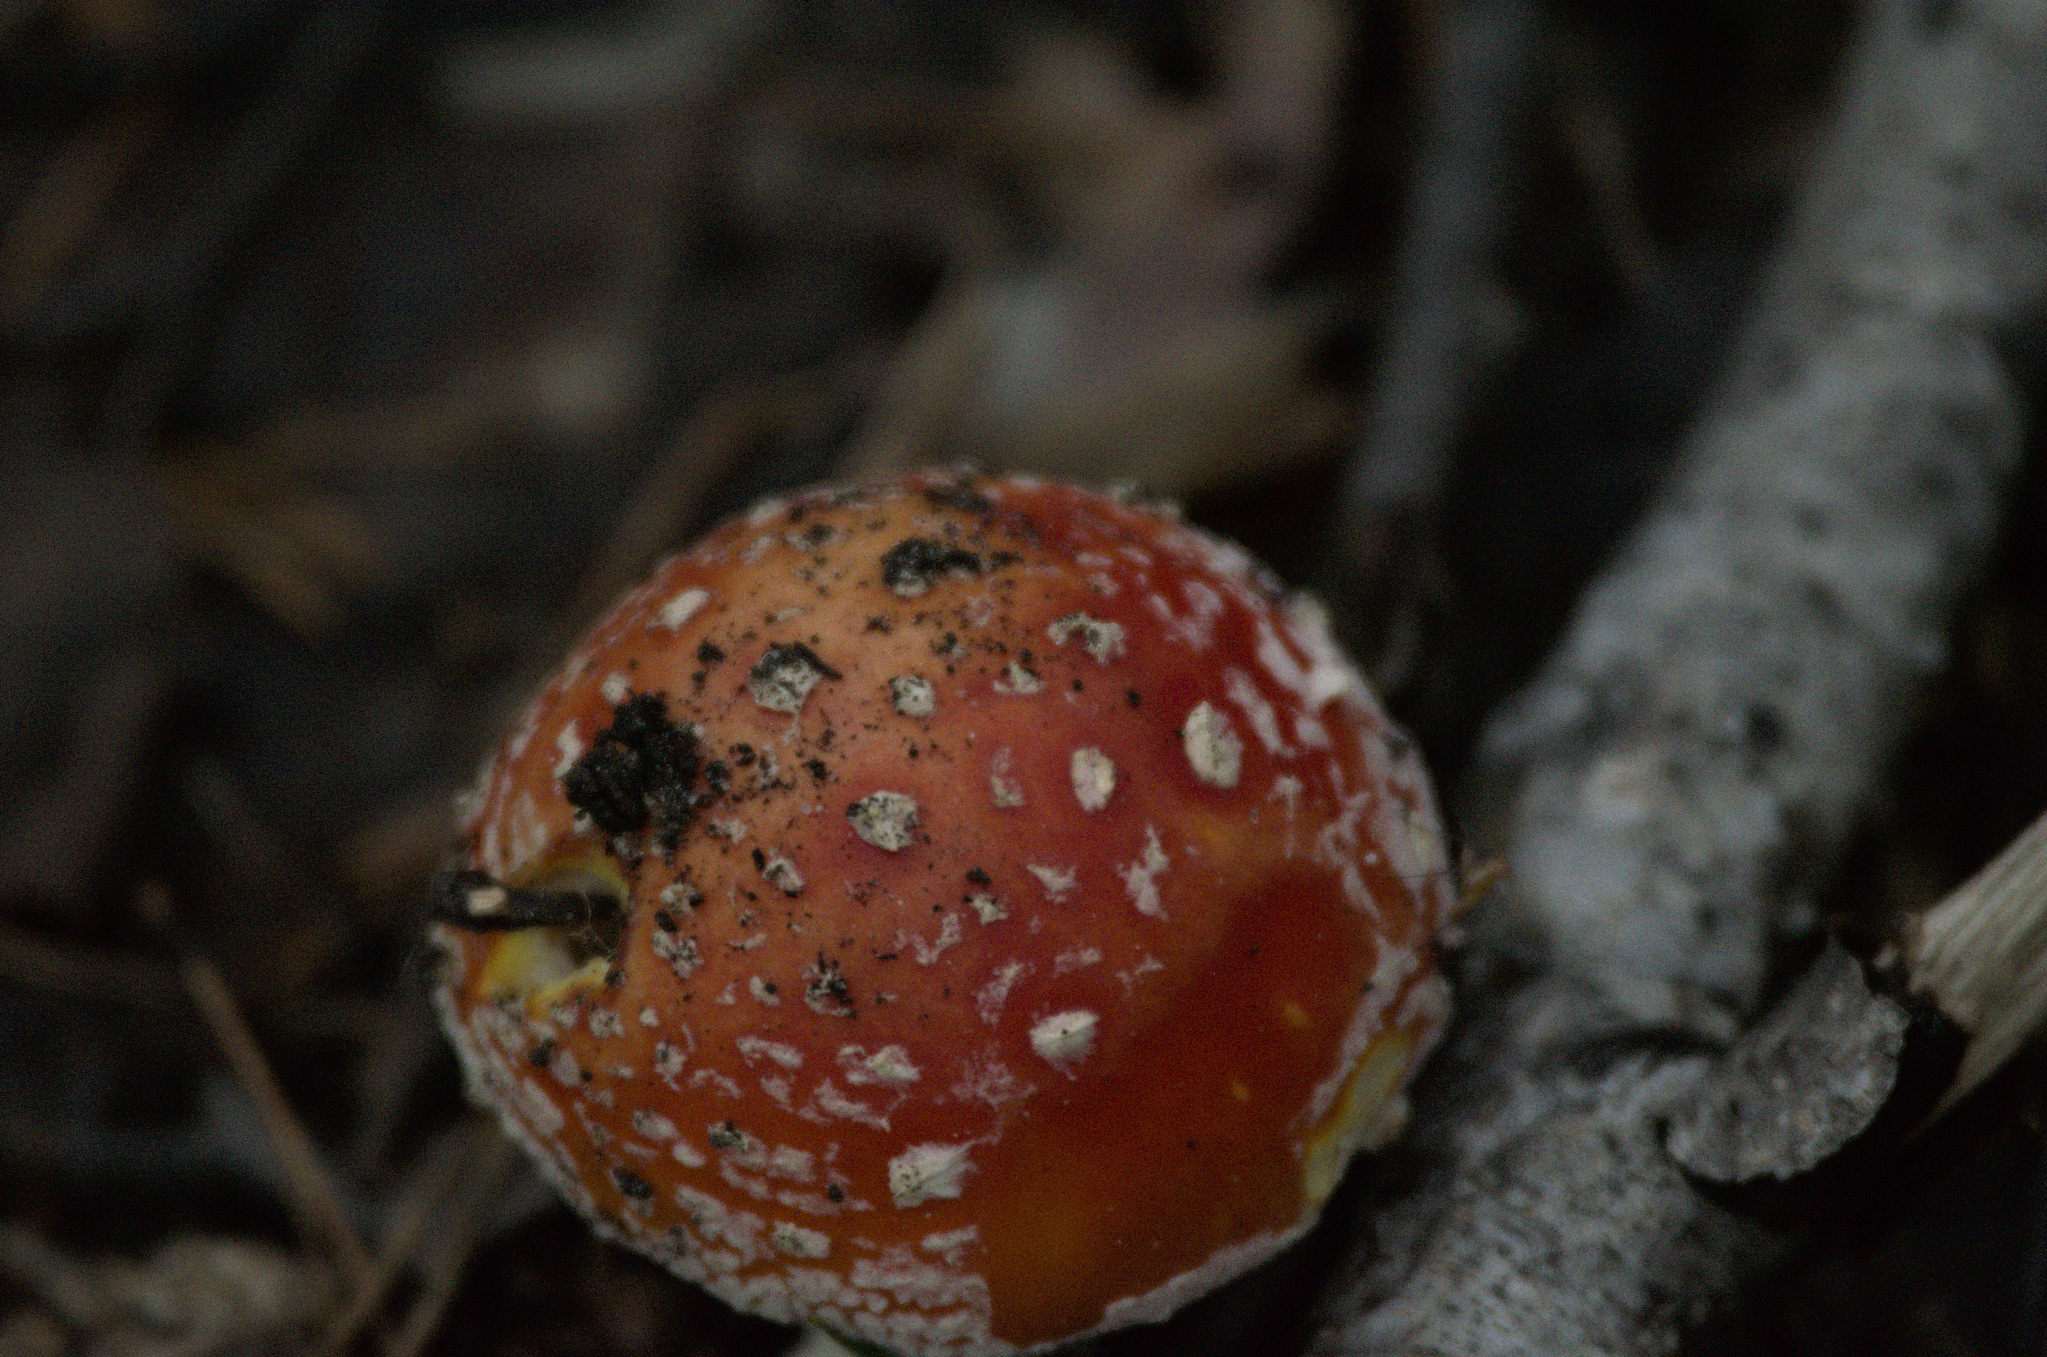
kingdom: Fungi
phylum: Basidiomycota
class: Agaricomycetes
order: Agaricales
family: Amanitaceae
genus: Amanita
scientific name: Amanita muscaria
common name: Fly agaric
